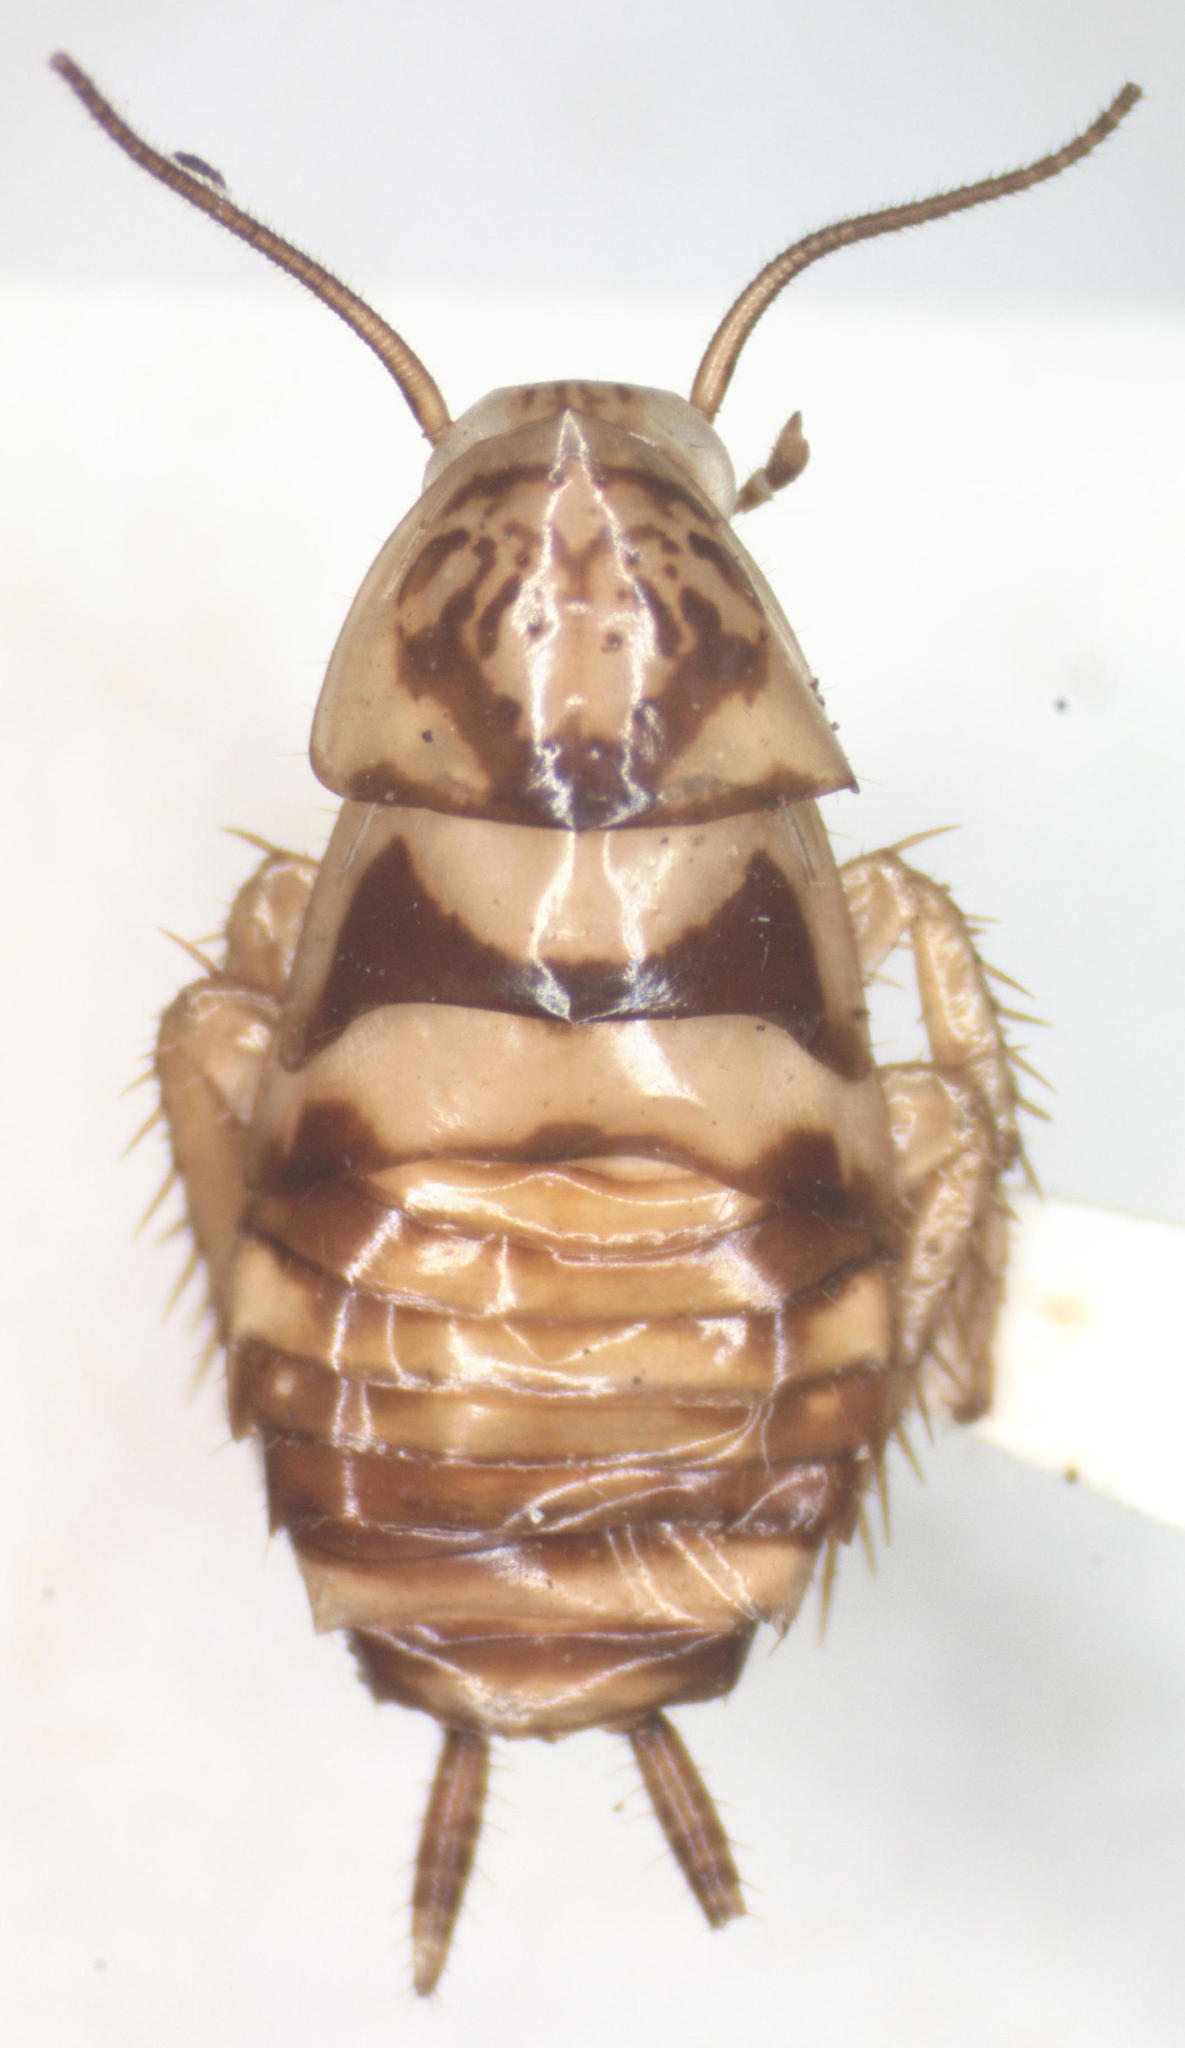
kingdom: Animalia
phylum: Arthropoda
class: Insecta
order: Blattodea
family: Ectobiidae
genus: Latiblattella
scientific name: Latiblattella angustifrons
